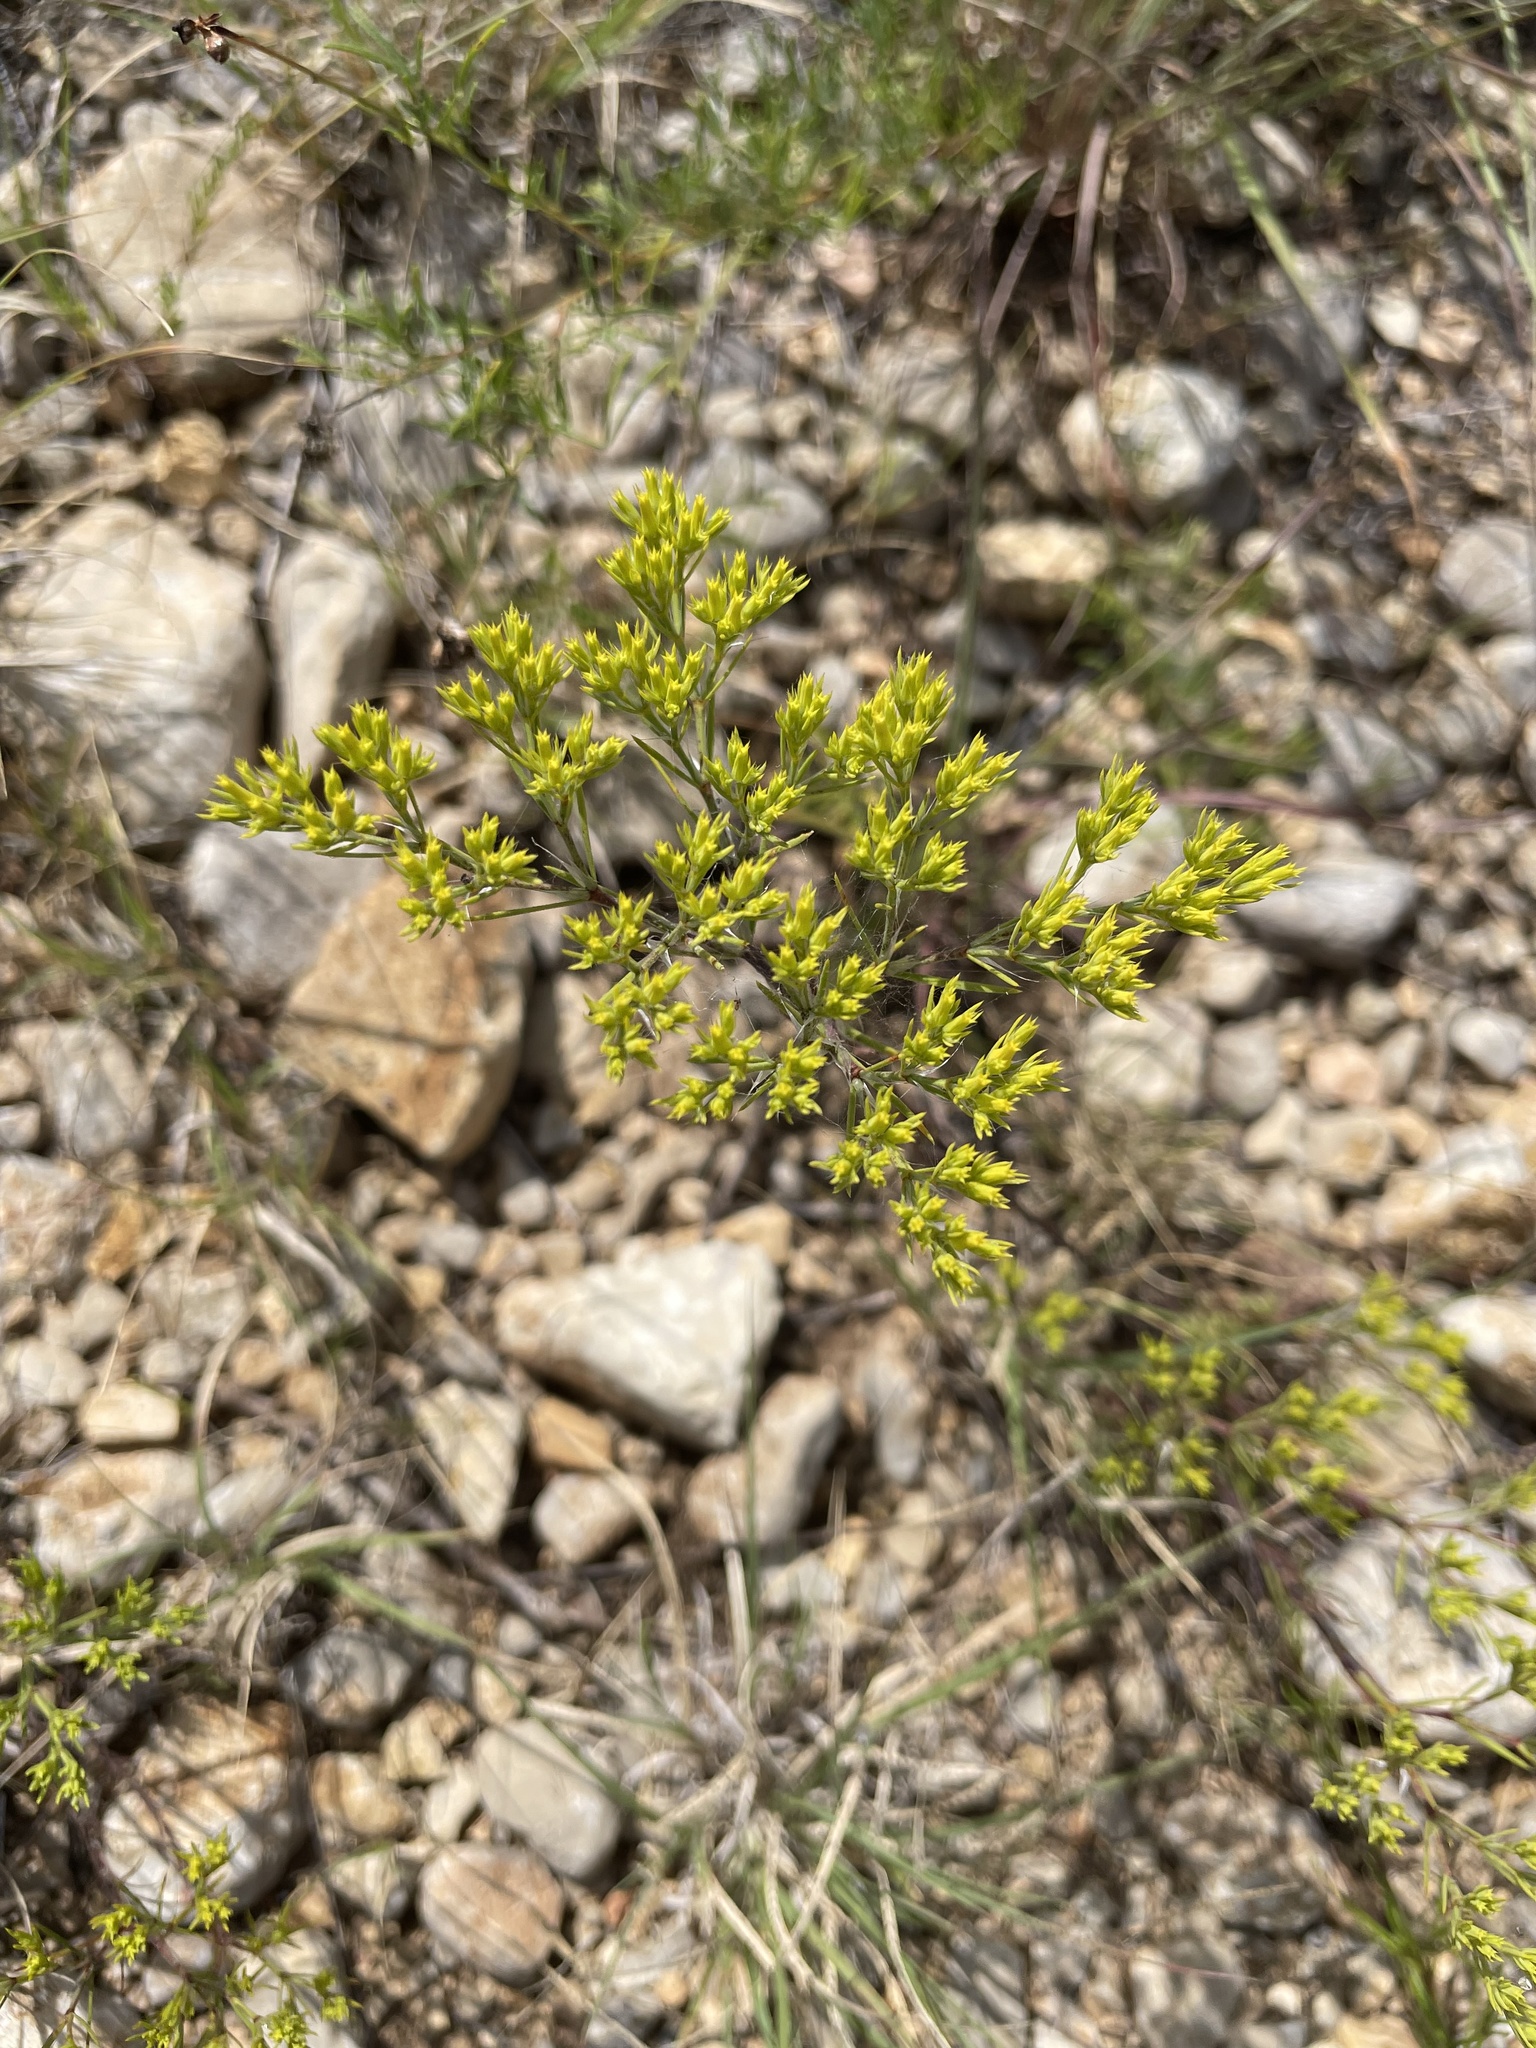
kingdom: Plantae
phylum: Tracheophyta
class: Magnoliopsida
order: Caryophyllales
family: Caryophyllaceae
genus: Paronychia
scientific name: Paronychia virginica
